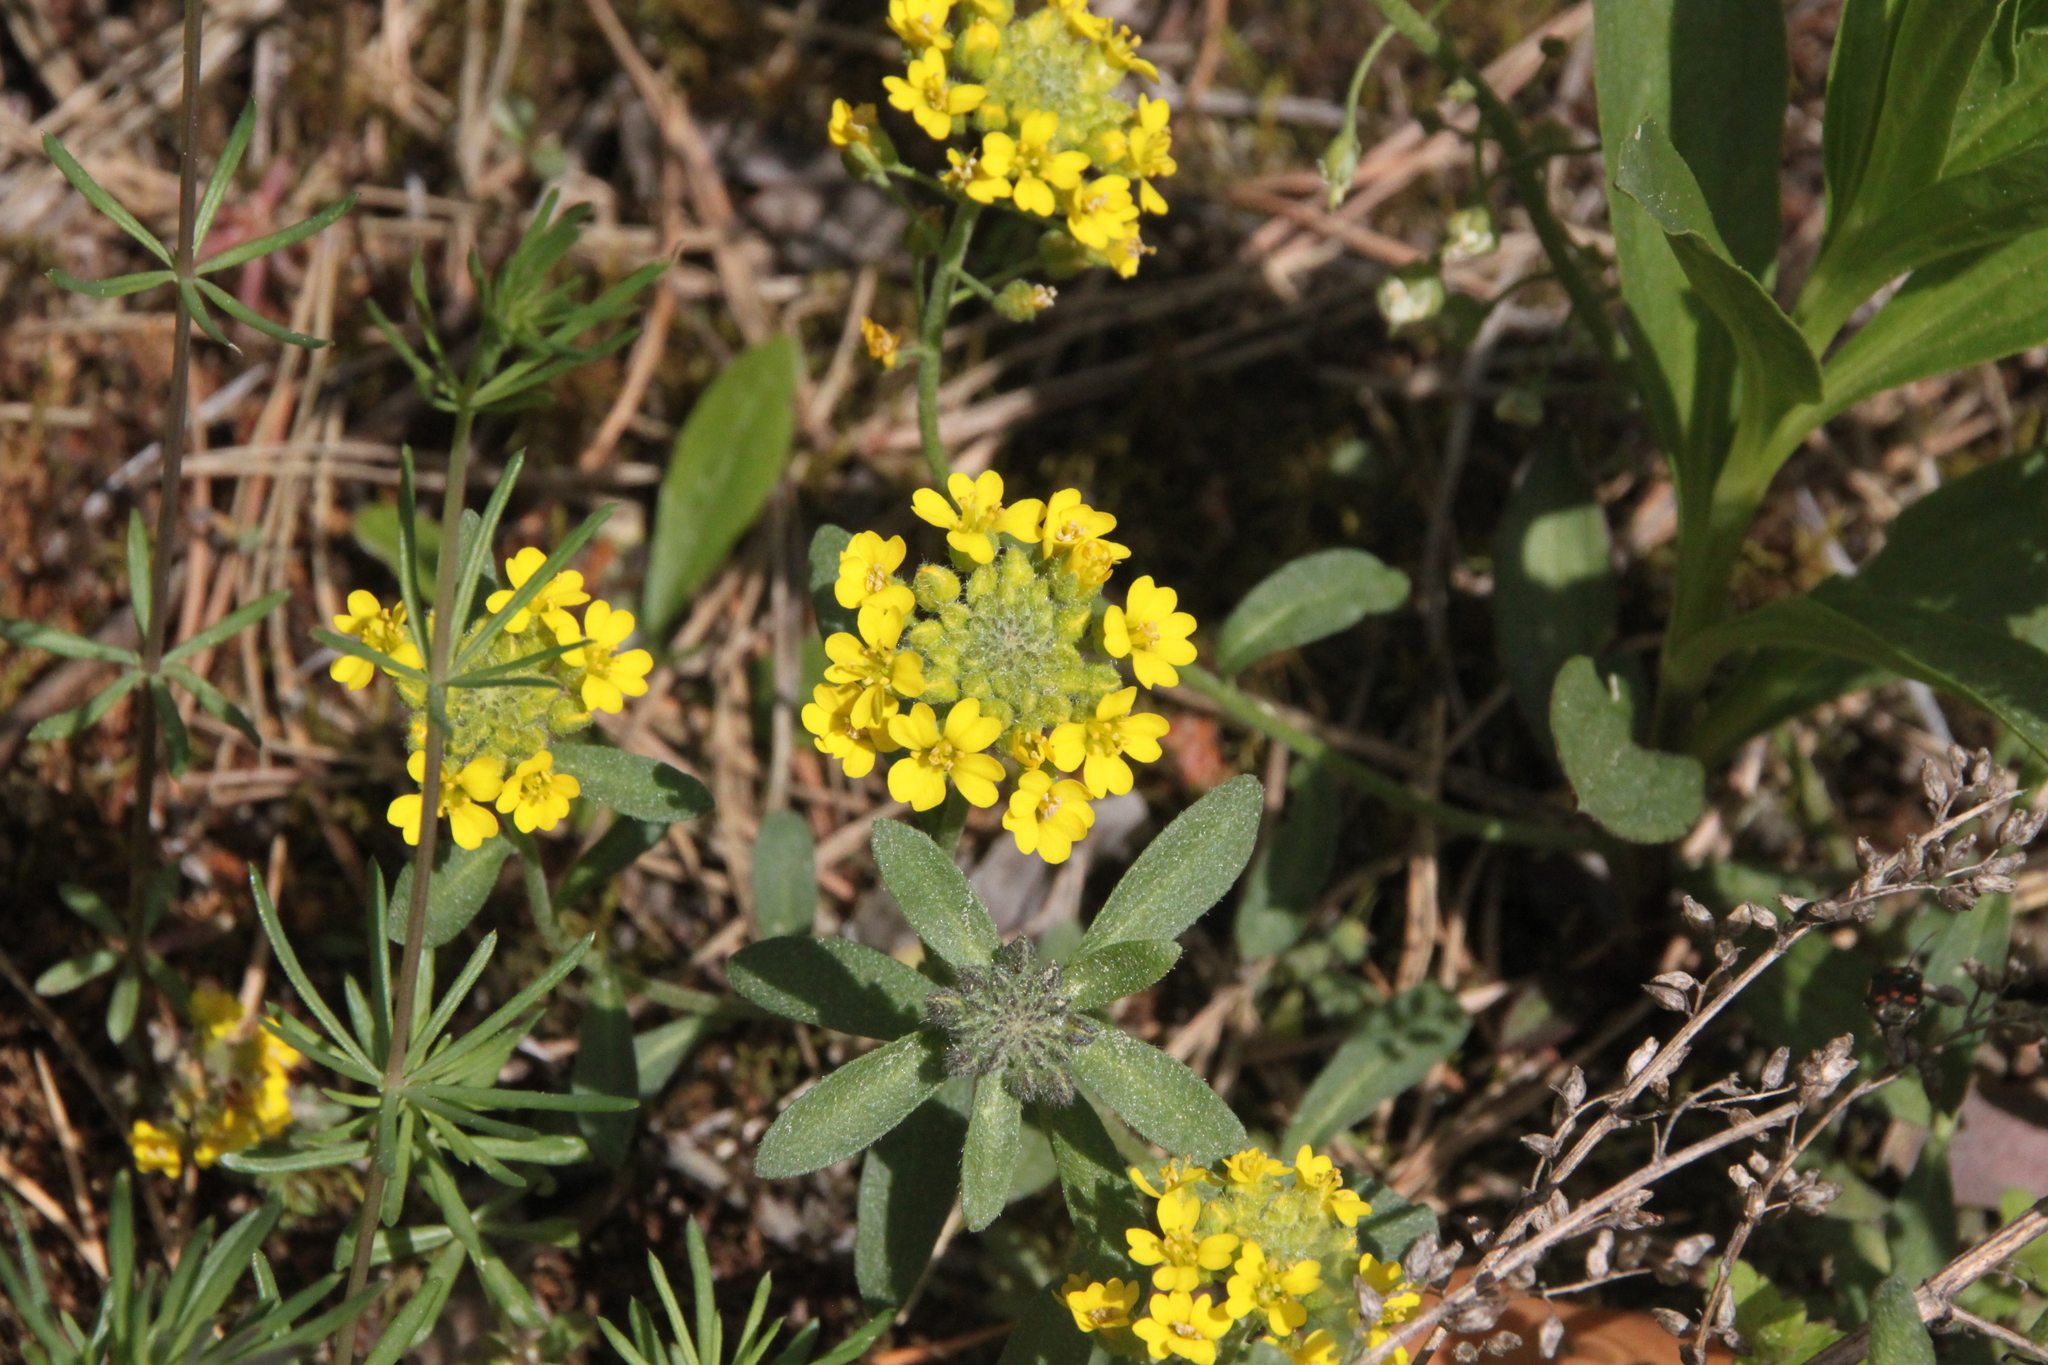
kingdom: Plantae
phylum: Tracheophyta
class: Magnoliopsida
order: Brassicales
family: Brassicaceae
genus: Alyssum
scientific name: Alyssum gmelinii
